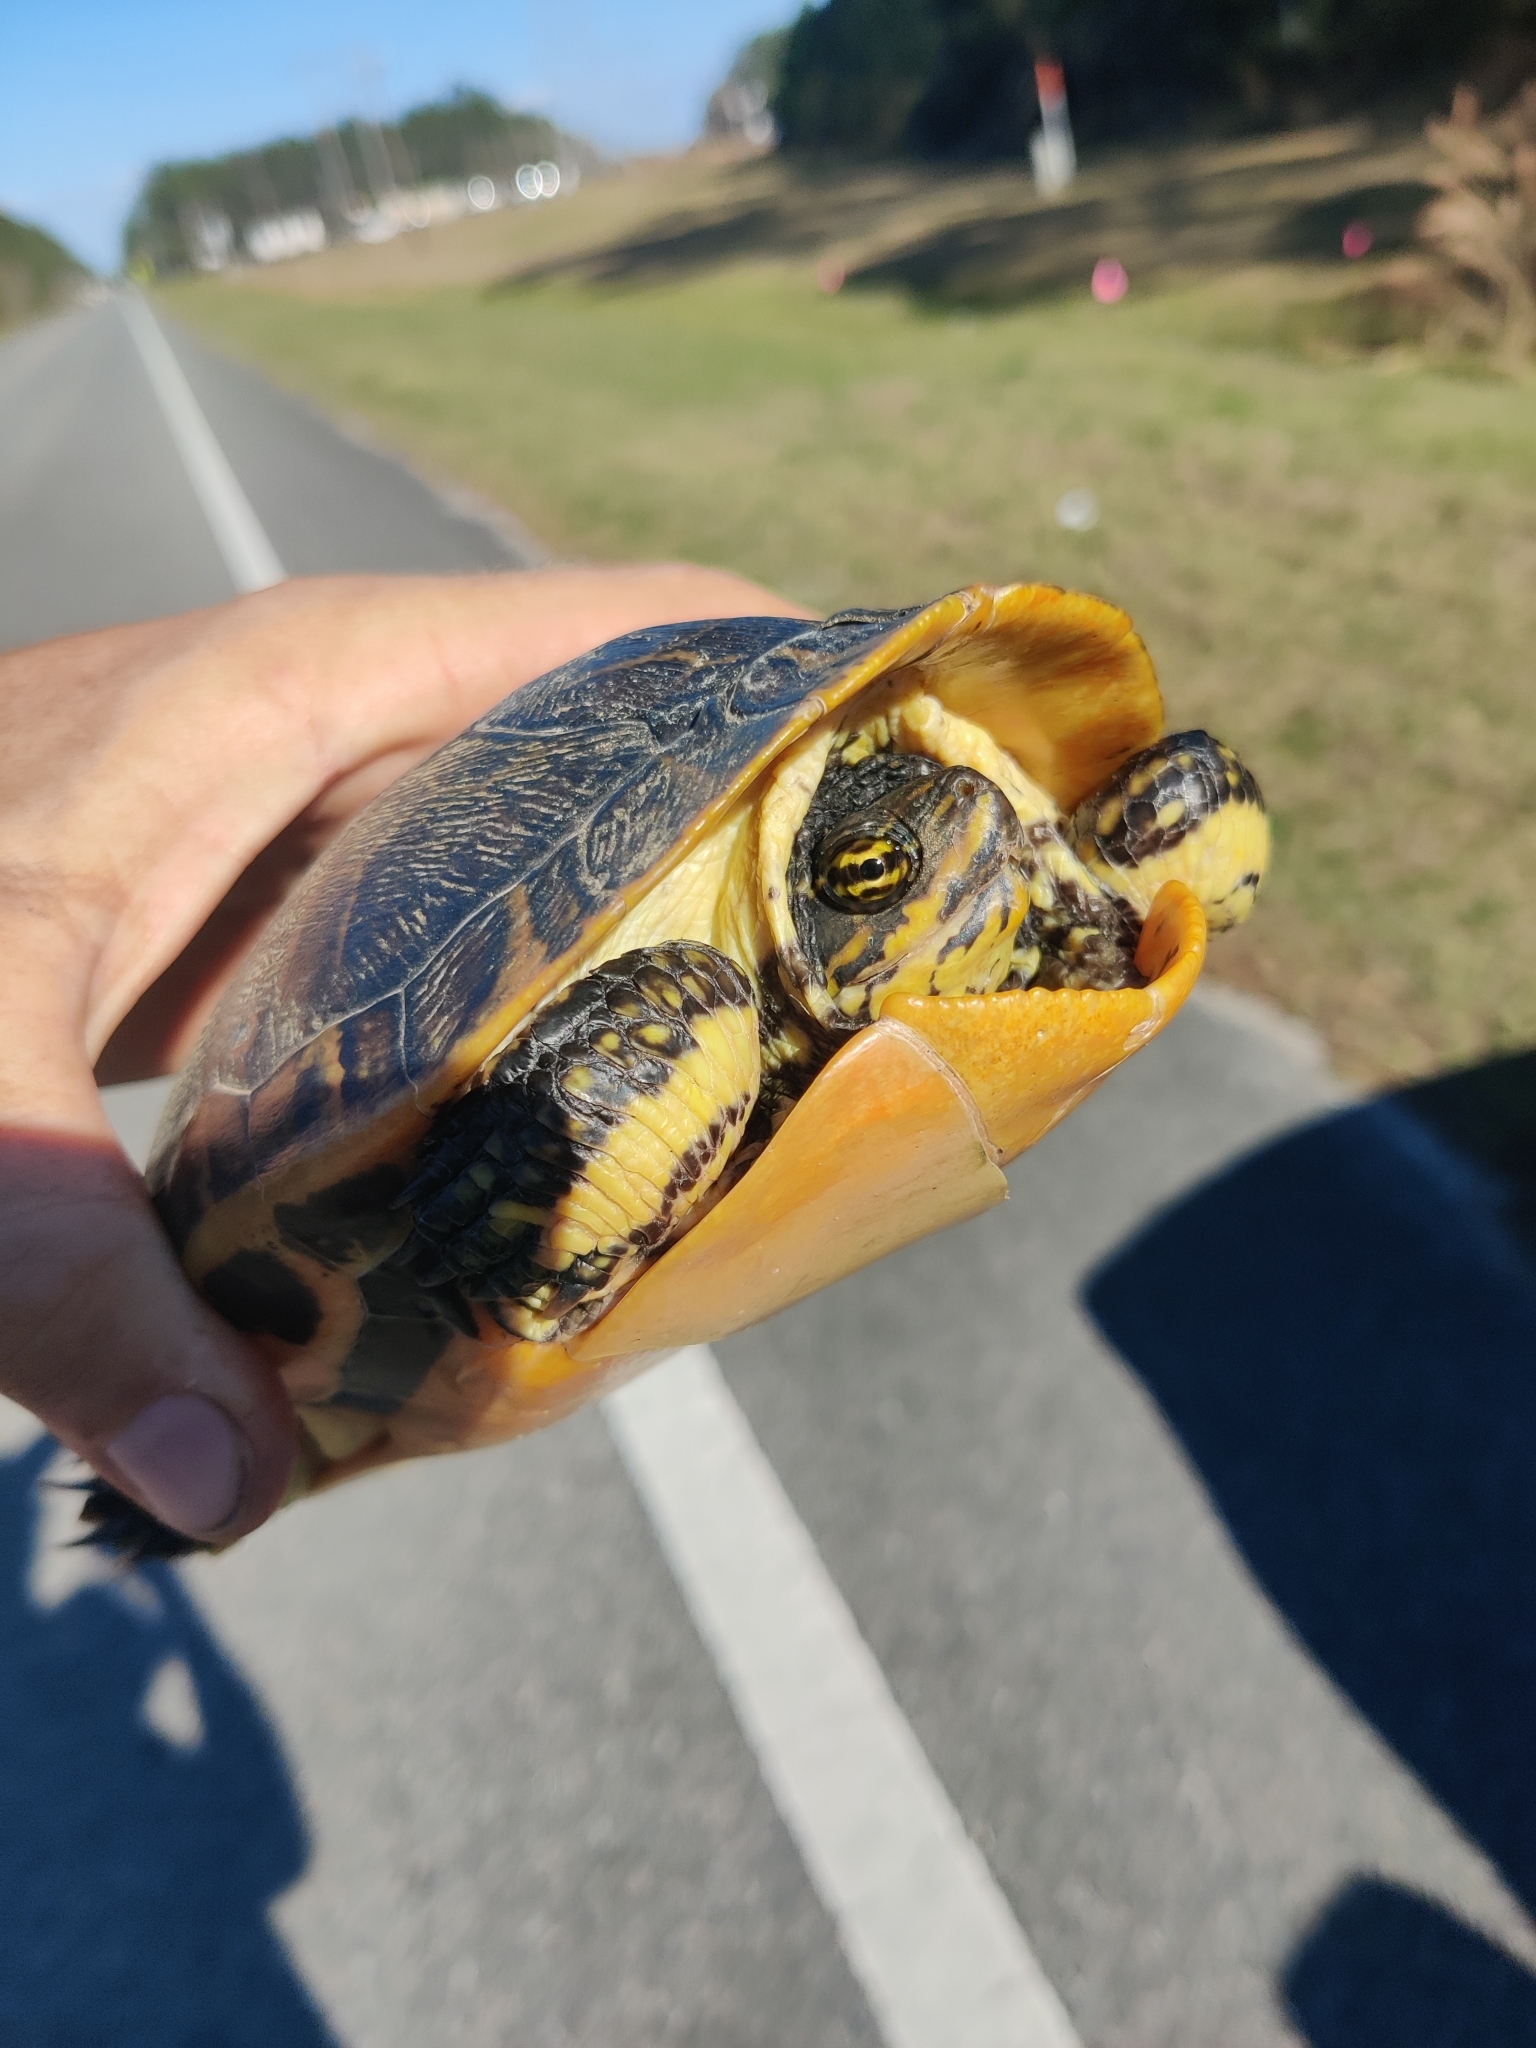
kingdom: Animalia
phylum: Chordata
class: Testudines
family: Emydidae
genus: Deirochelys
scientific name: Deirochelys reticularia
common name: Chicken turtle
